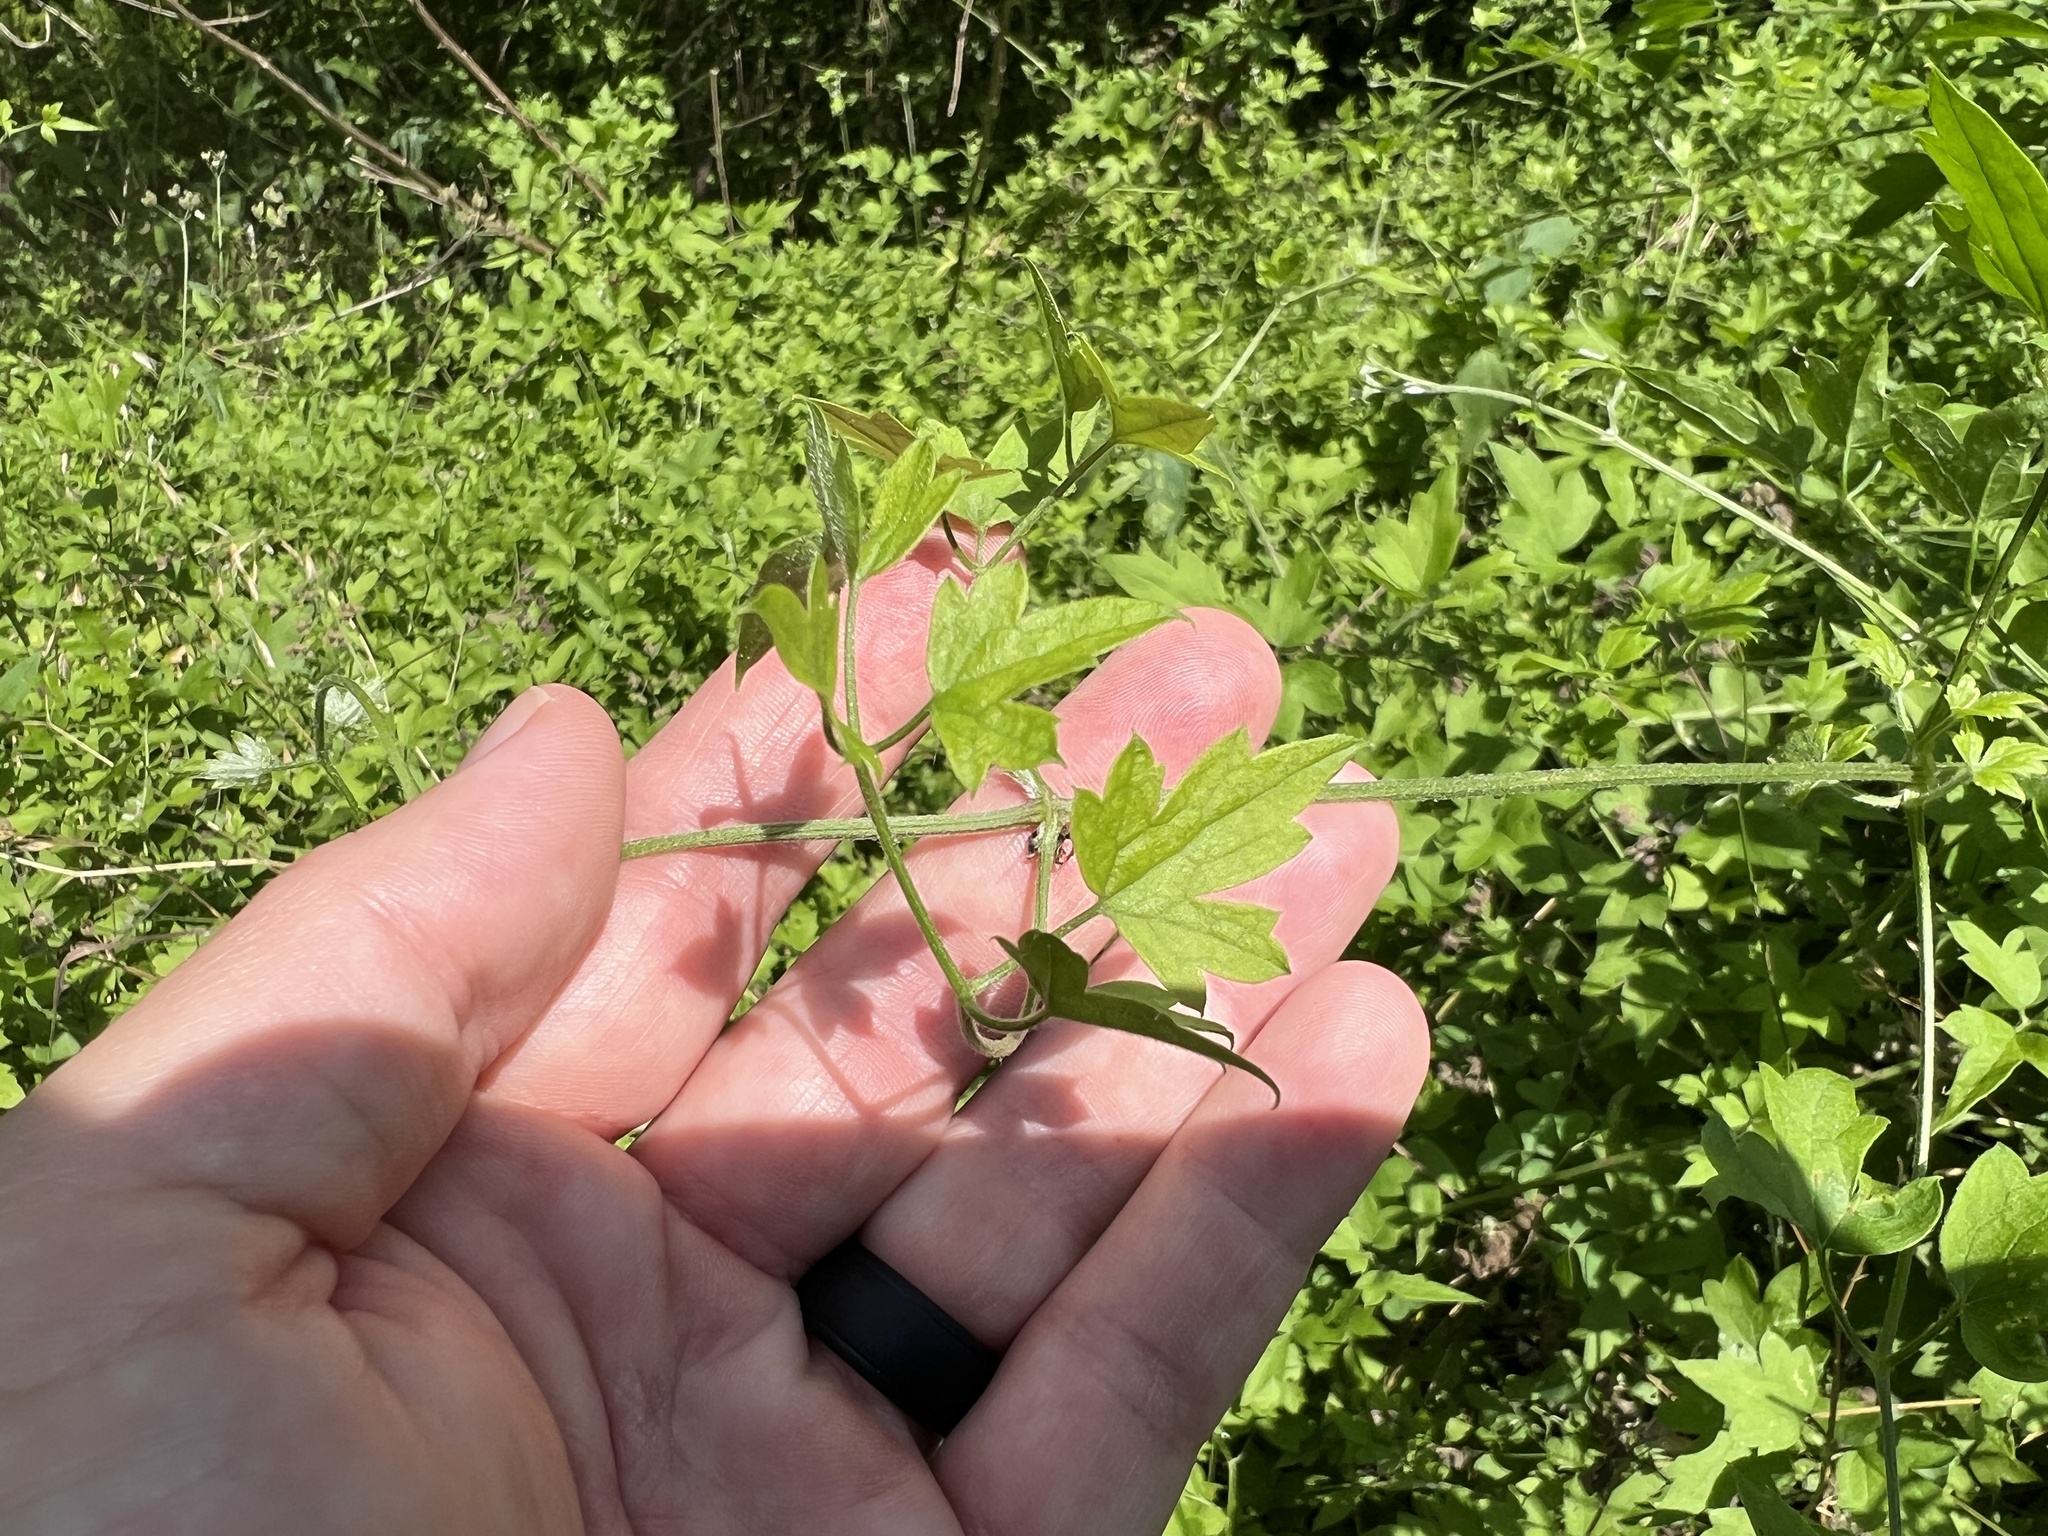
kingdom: Plantae
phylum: Tracheophyta
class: Magnoliopsida
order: Ranunculales
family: Ranunculaceae
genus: Clematis
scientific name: Clematis drummondii
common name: Texas virgin's bower
